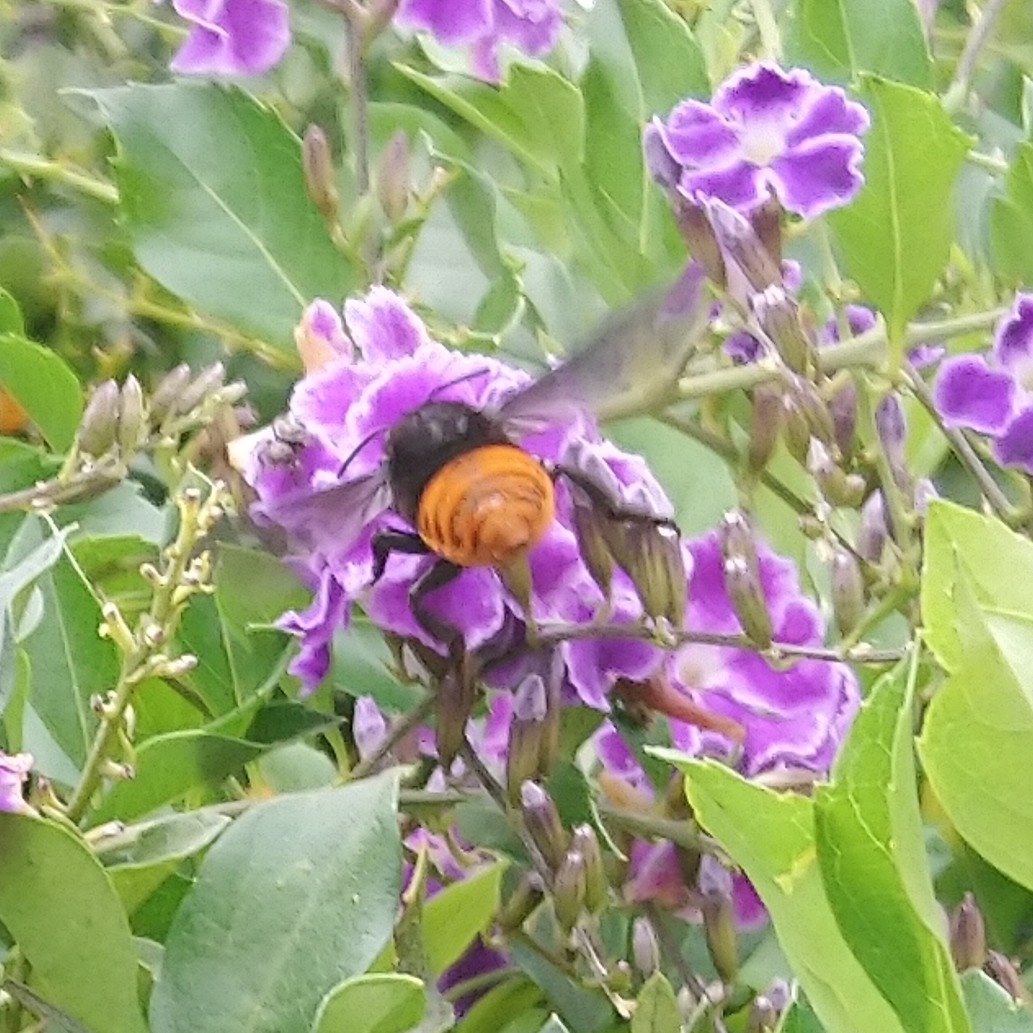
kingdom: Animalia
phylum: Arthropoda
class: Insecta
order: Hymenoptera
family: Megachilidae
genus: Gronoceras
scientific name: Gronoceras cinctum
